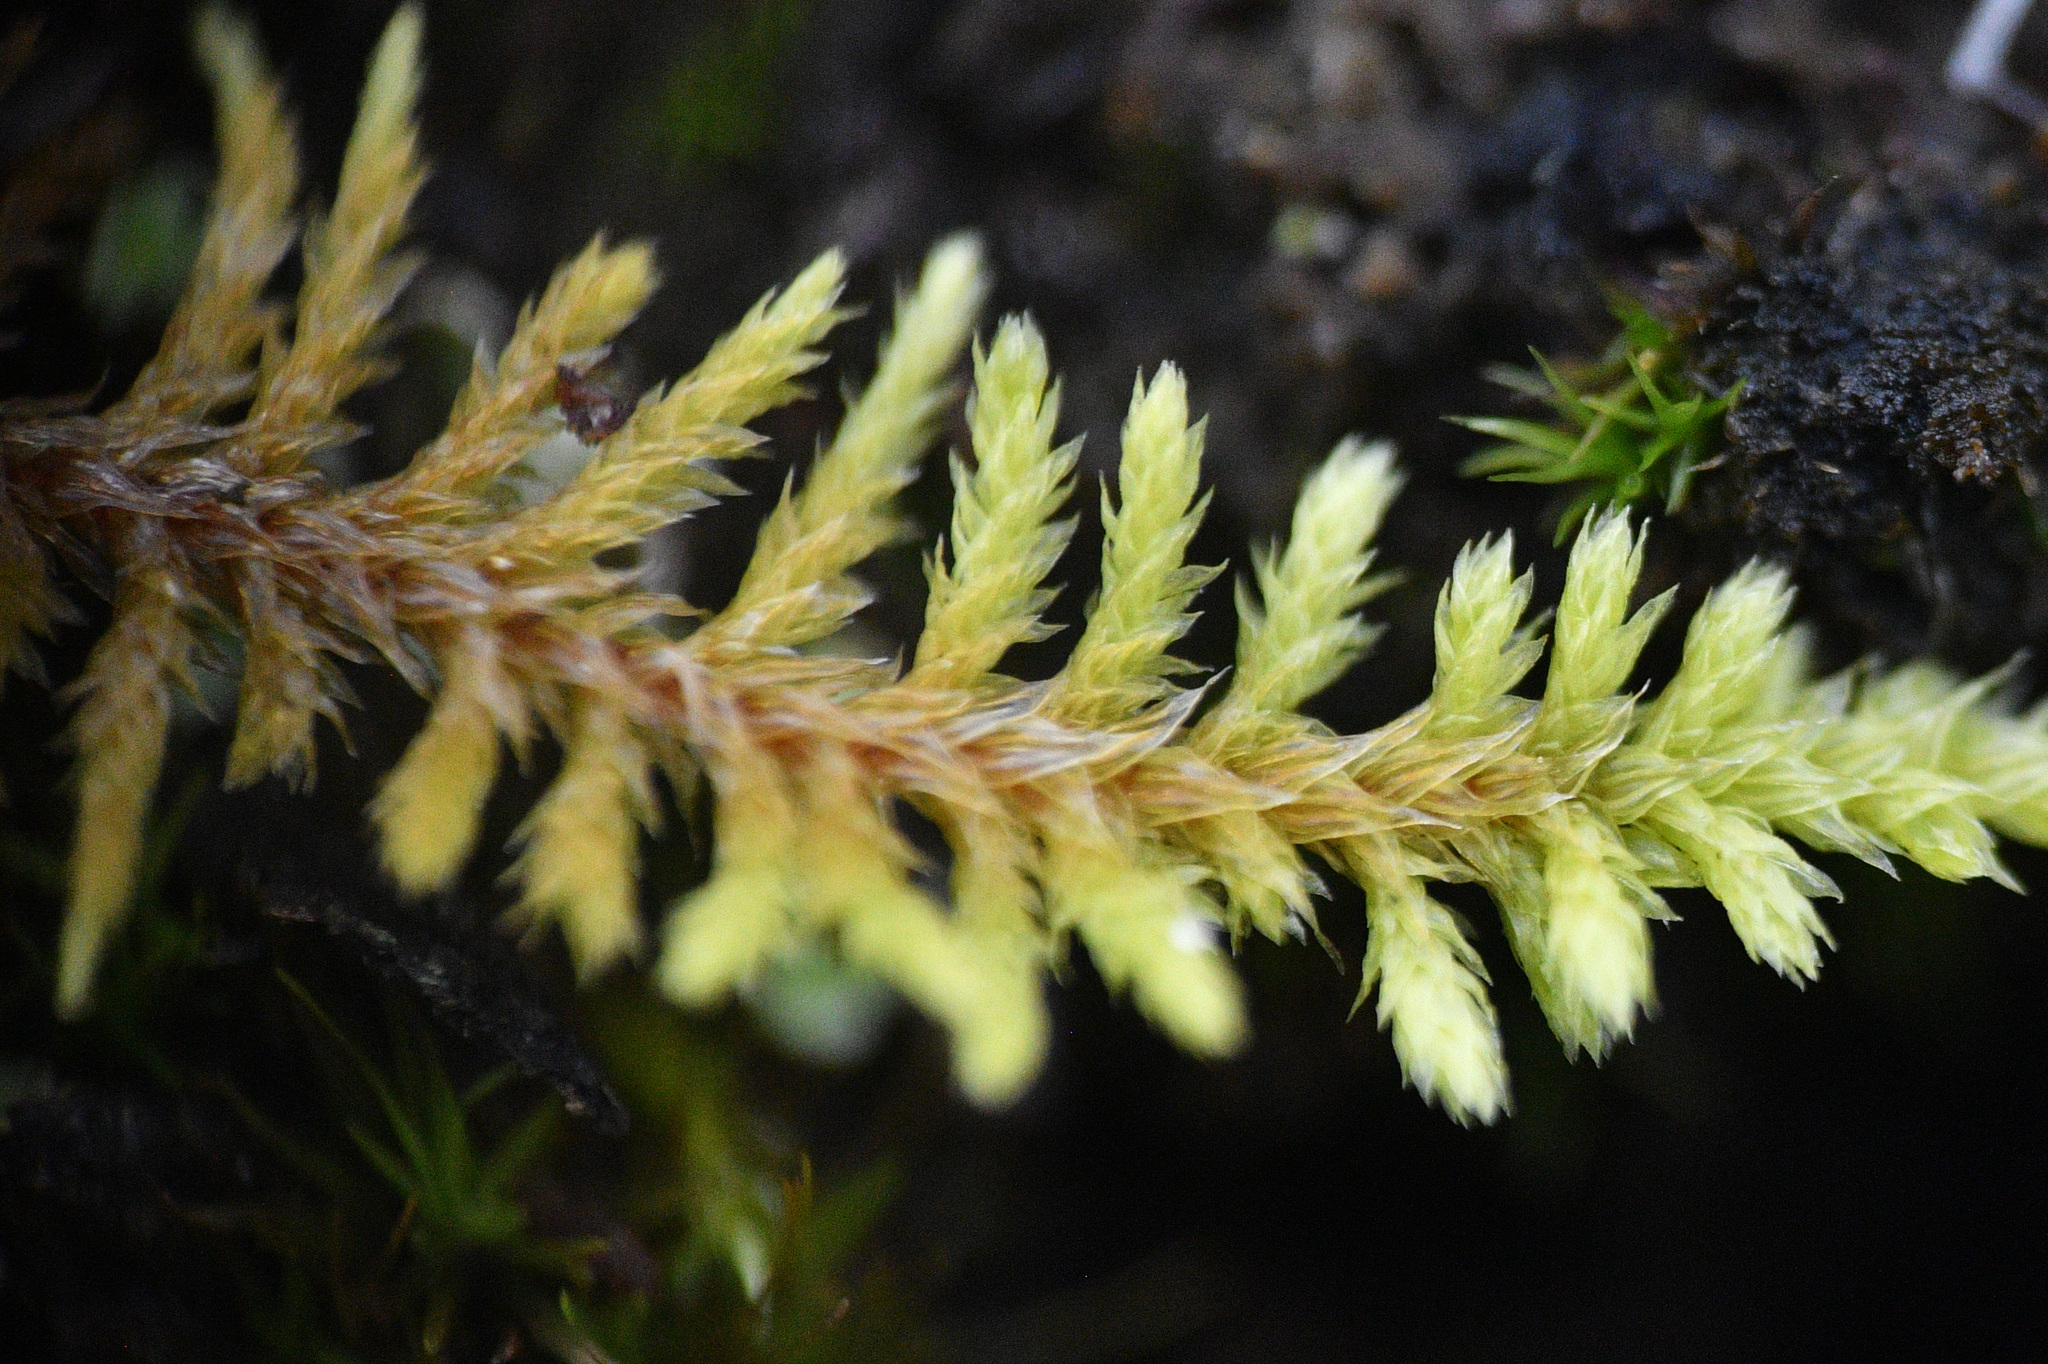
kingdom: Plantae
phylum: Bryophyta
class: Bryopsida
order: Hypnales
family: Thuidiaceae
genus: Abietinella
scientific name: Abietinella abietina
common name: Wiry fern moss
